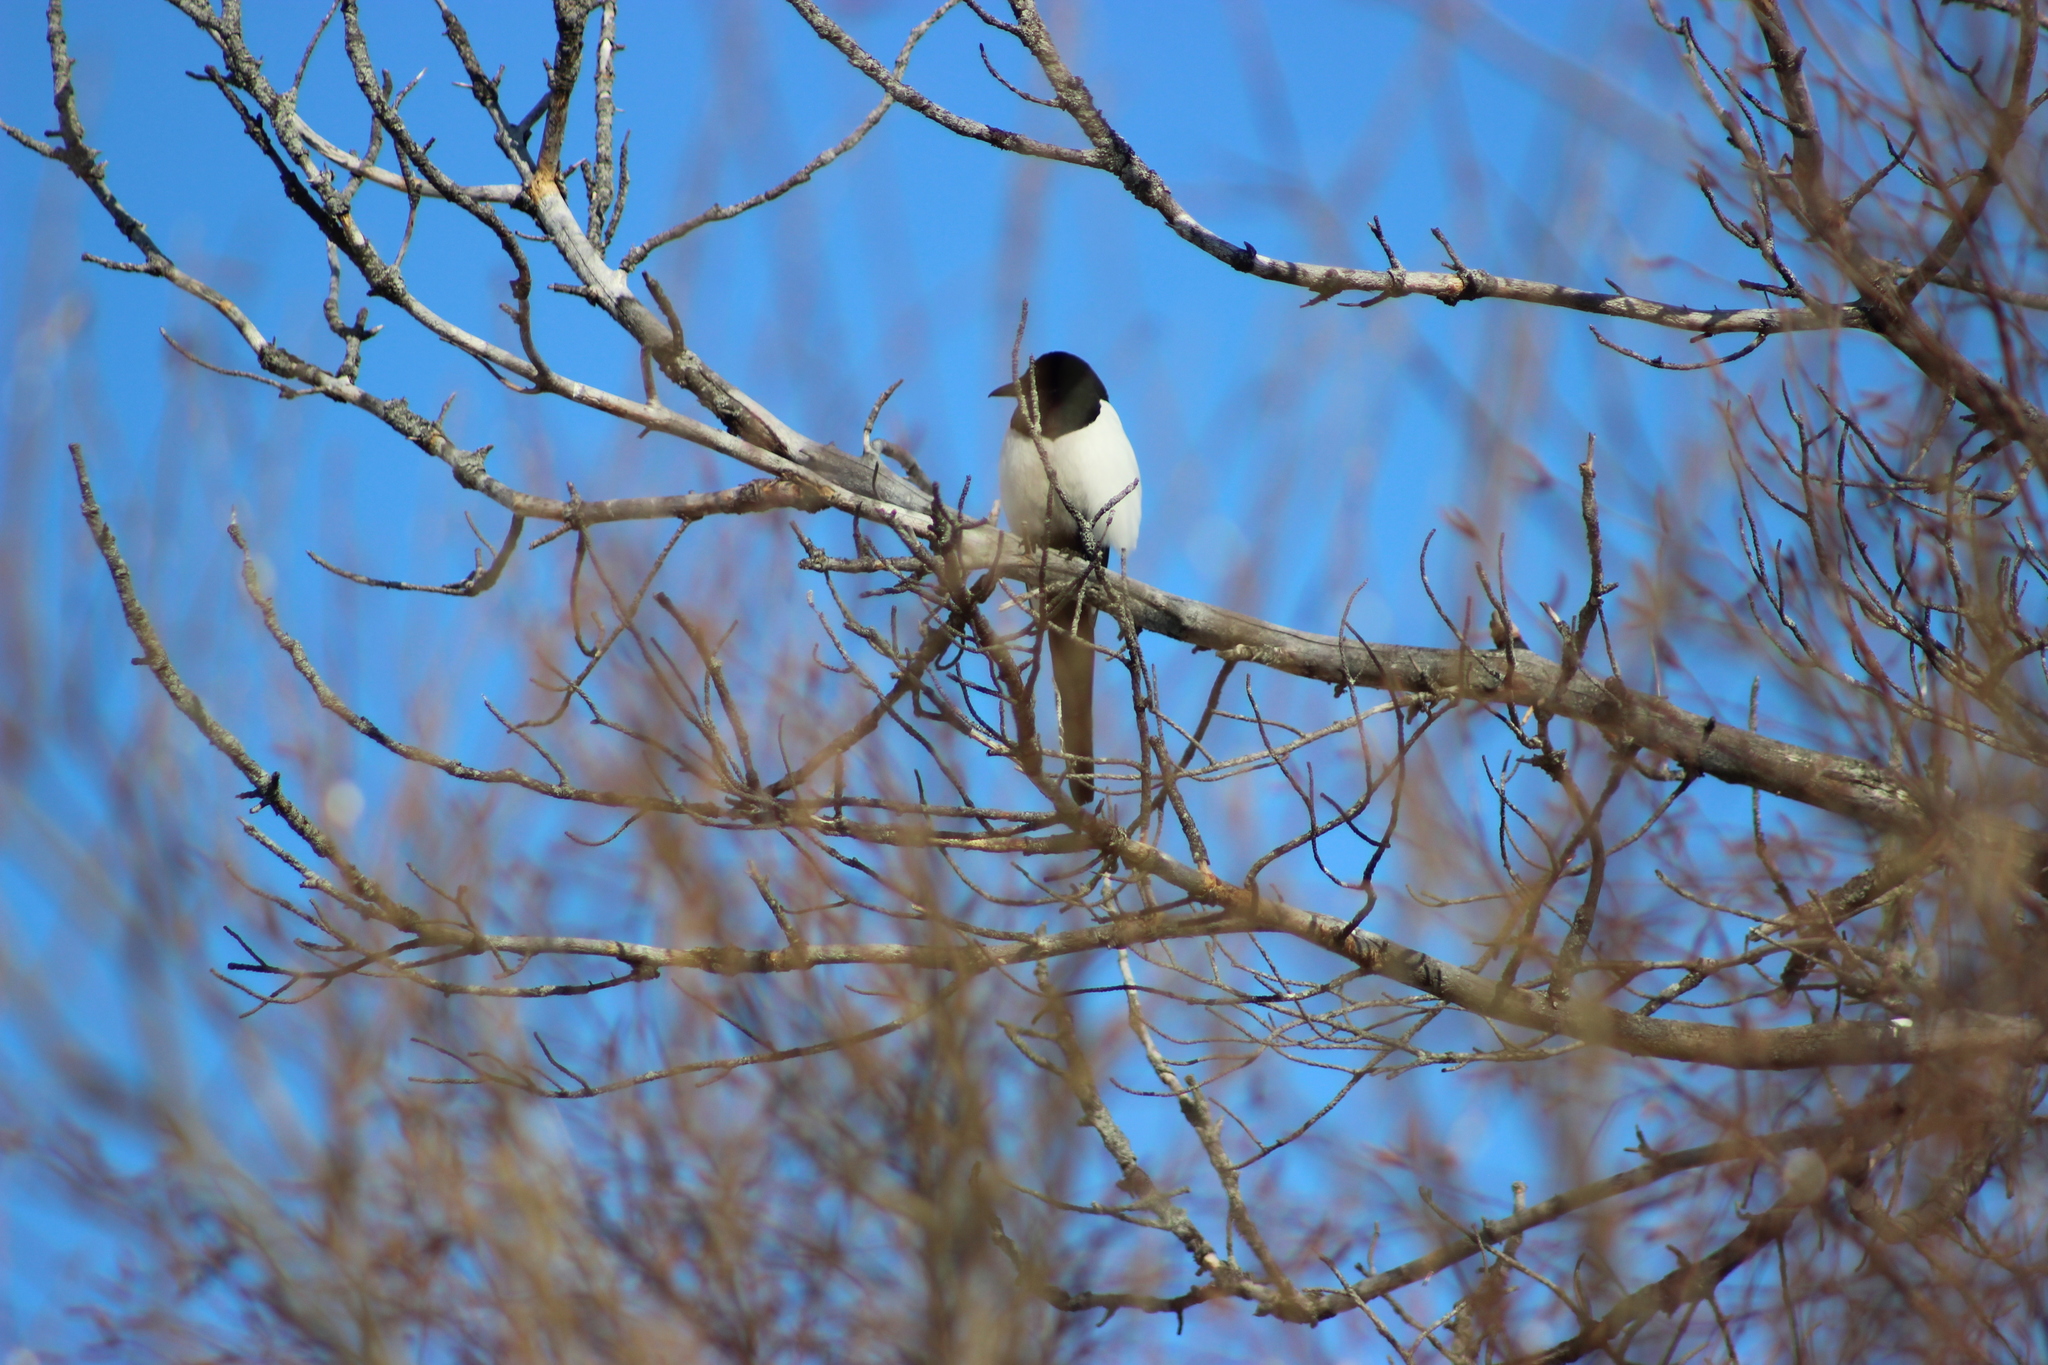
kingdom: Animalia
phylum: Chordata
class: Aves
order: Passeriformes
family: Corvidae
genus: Pica
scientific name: Pica pica
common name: Eurasian magpie
